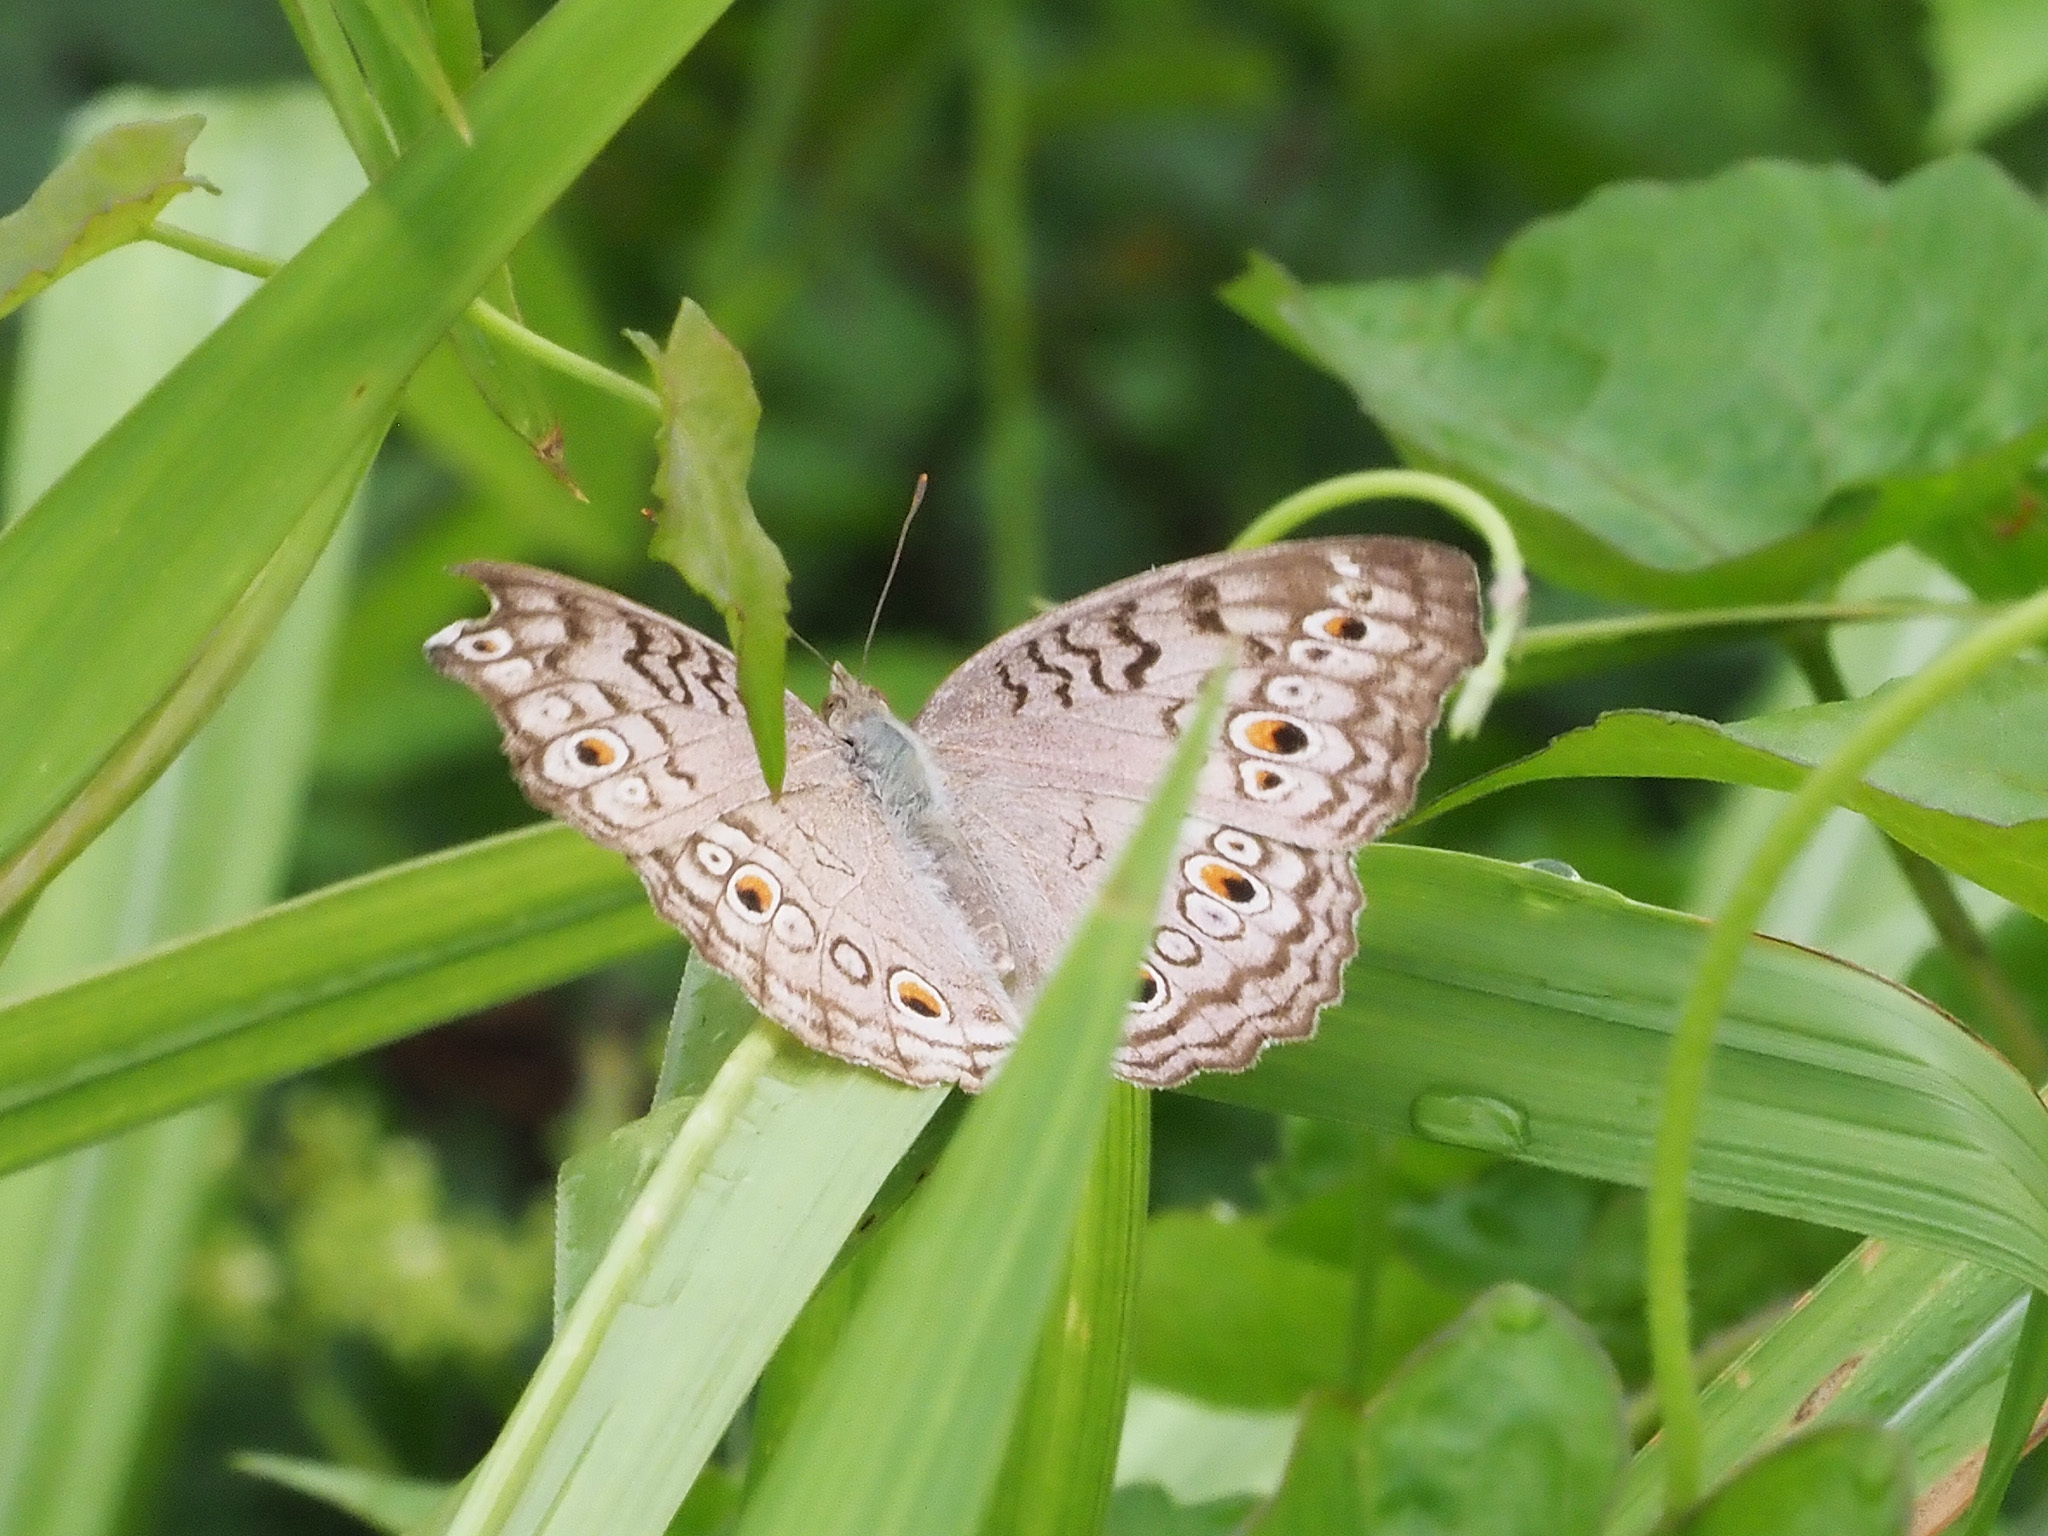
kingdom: Animalia
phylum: Arthropoda
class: Insecta
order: Lepidoptera
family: Nymphalidae
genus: Junonia
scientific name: Junonia atlites
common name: Grey pansy
